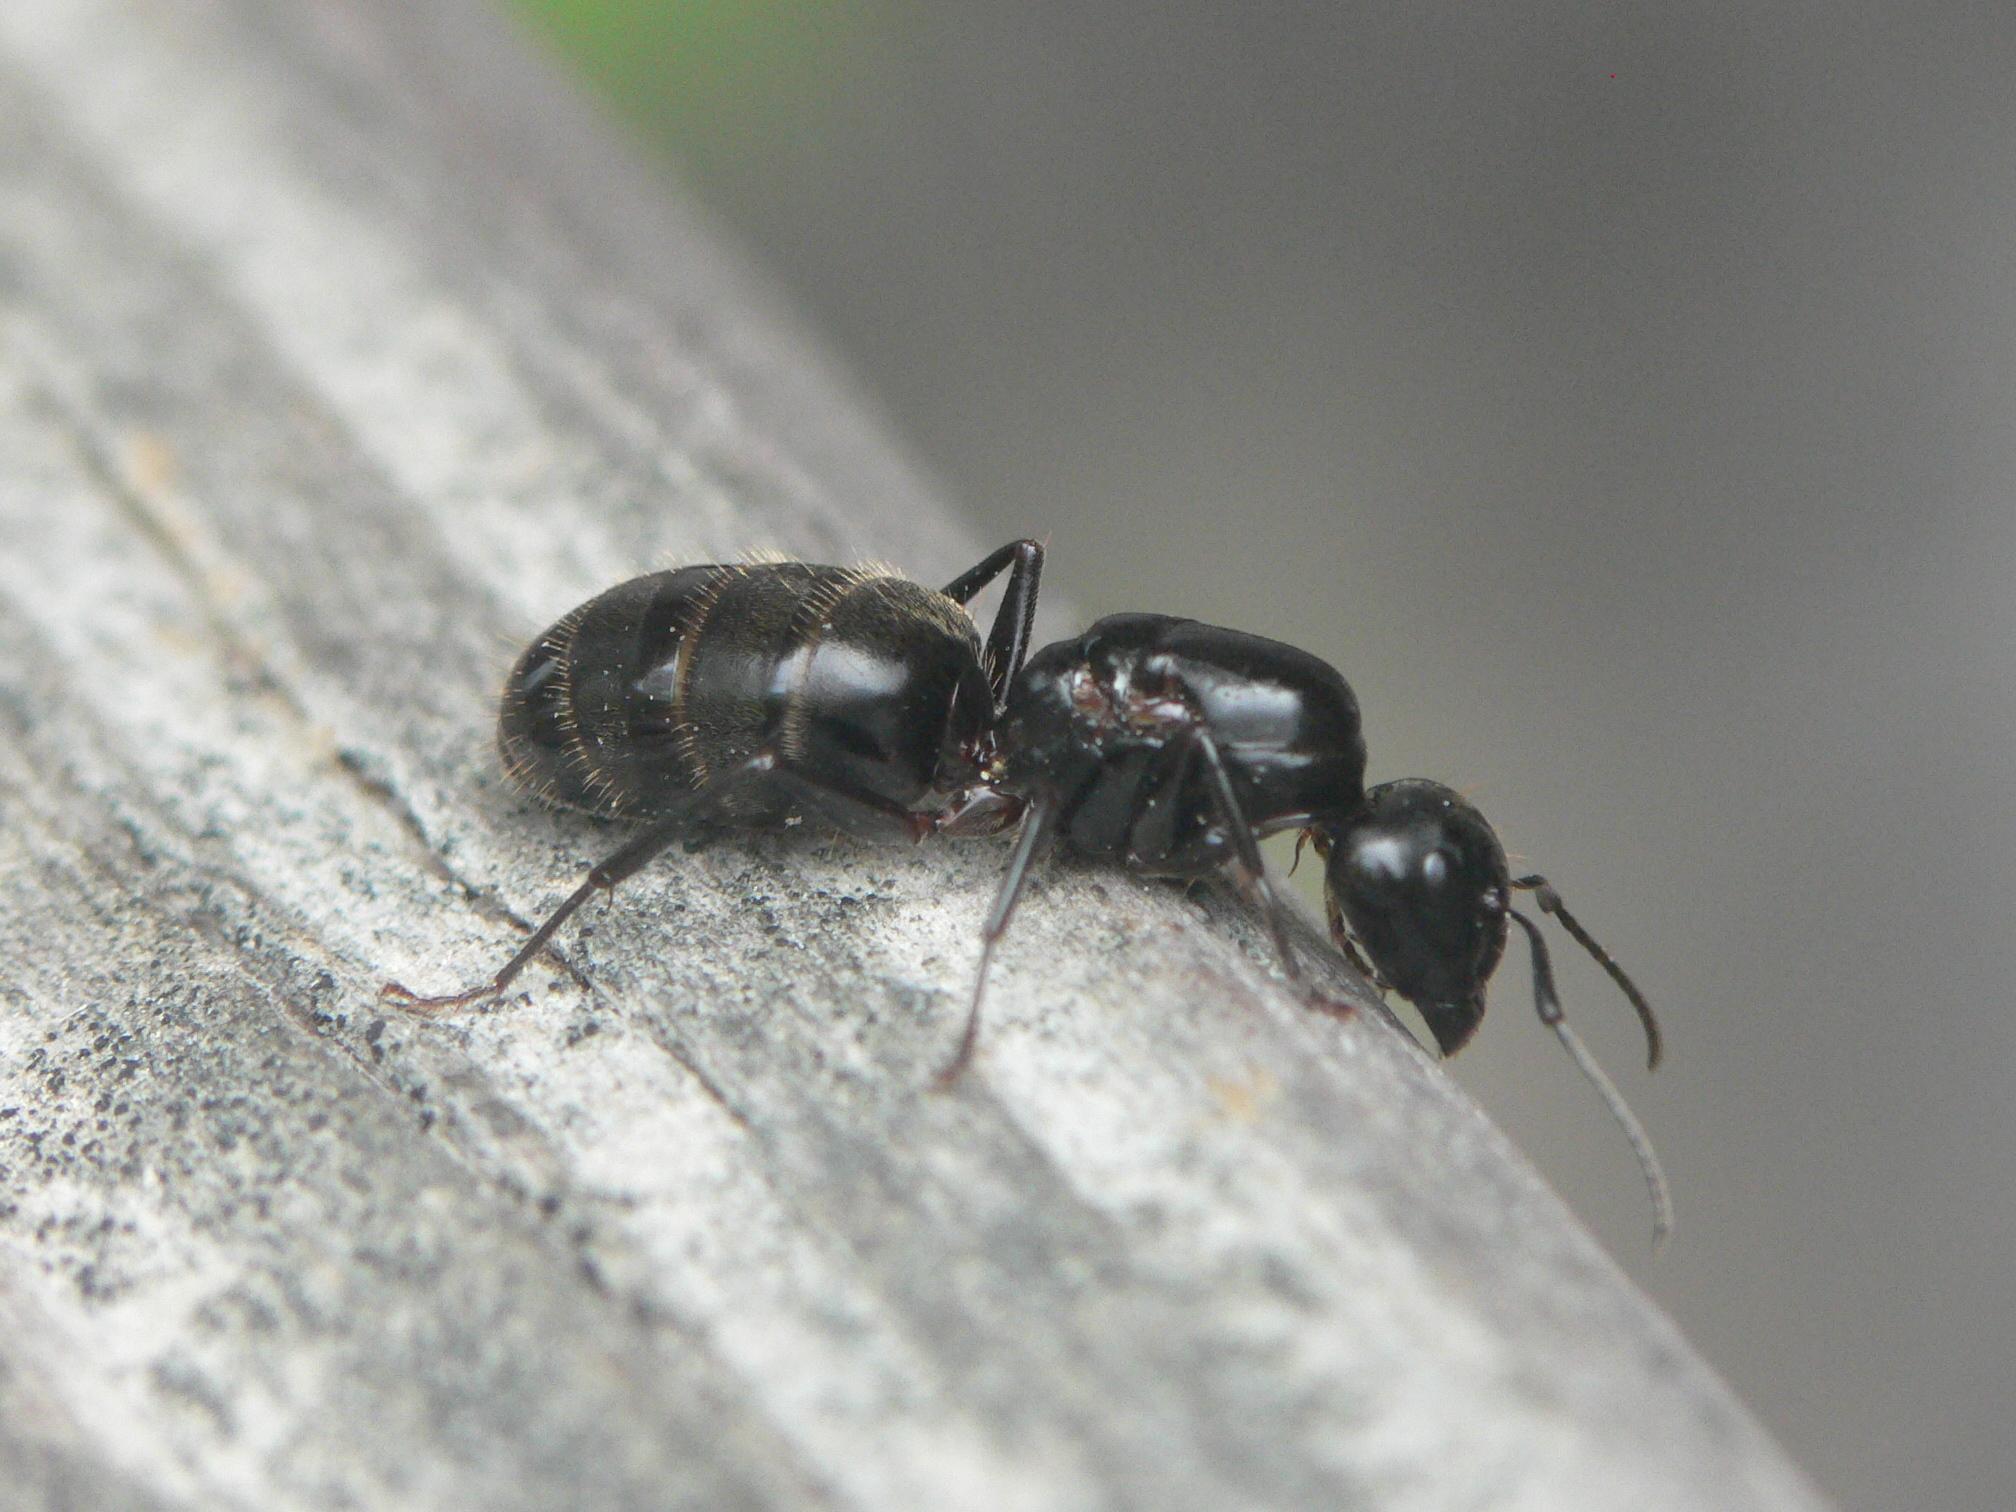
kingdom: Animalia
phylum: Arthropoda
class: Insecta
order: Hymenoptera
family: Formicidae
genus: Camponotus
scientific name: Camponotus pennsylvanicus
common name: Black carpenter ant
